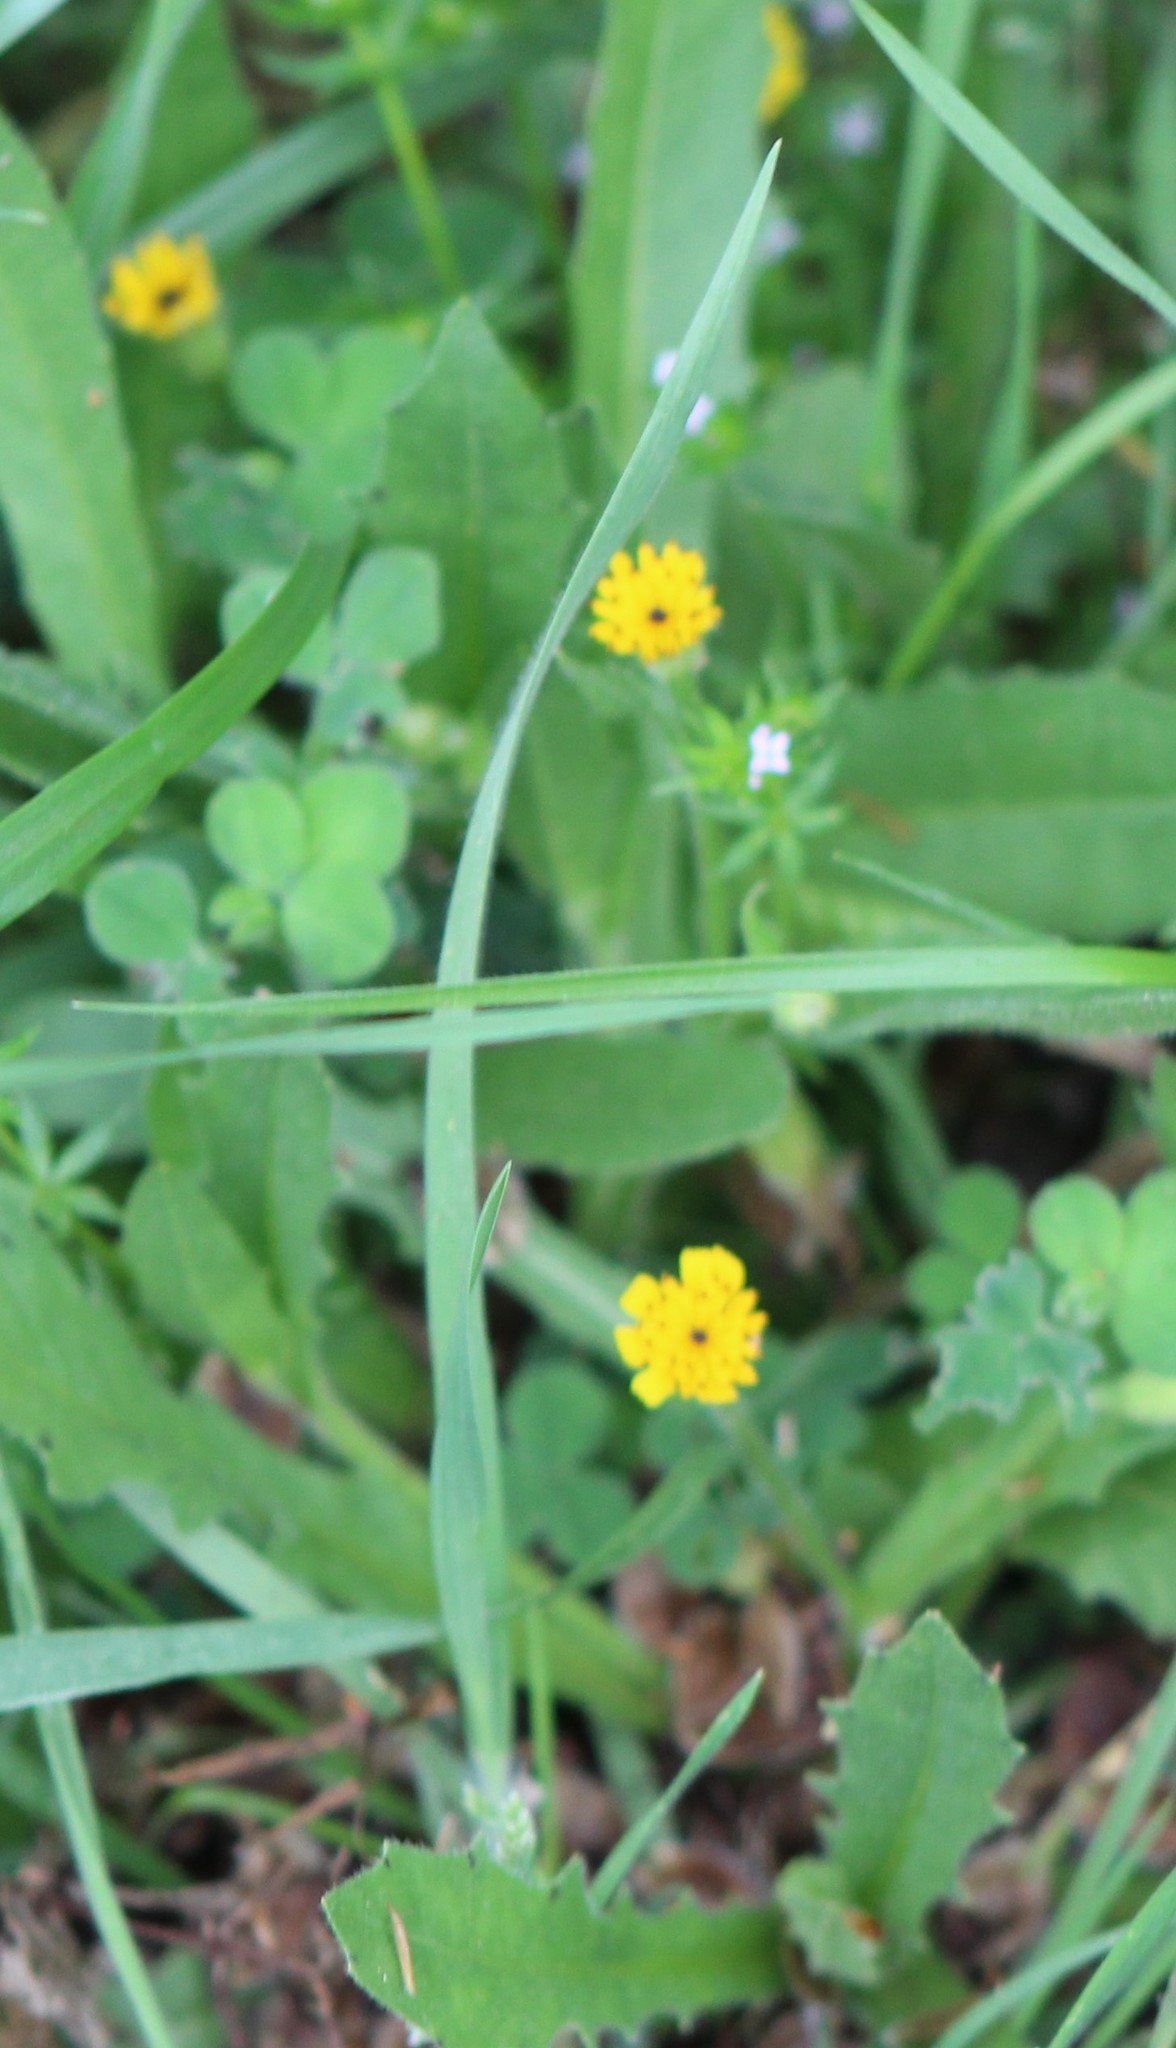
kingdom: Plantae
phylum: Tracheophyta
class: Magnoliopsida
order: Asterales
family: Asteraceae
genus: Hedypnois
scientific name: Hedypnois rhagadioloides
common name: Cretan weed
